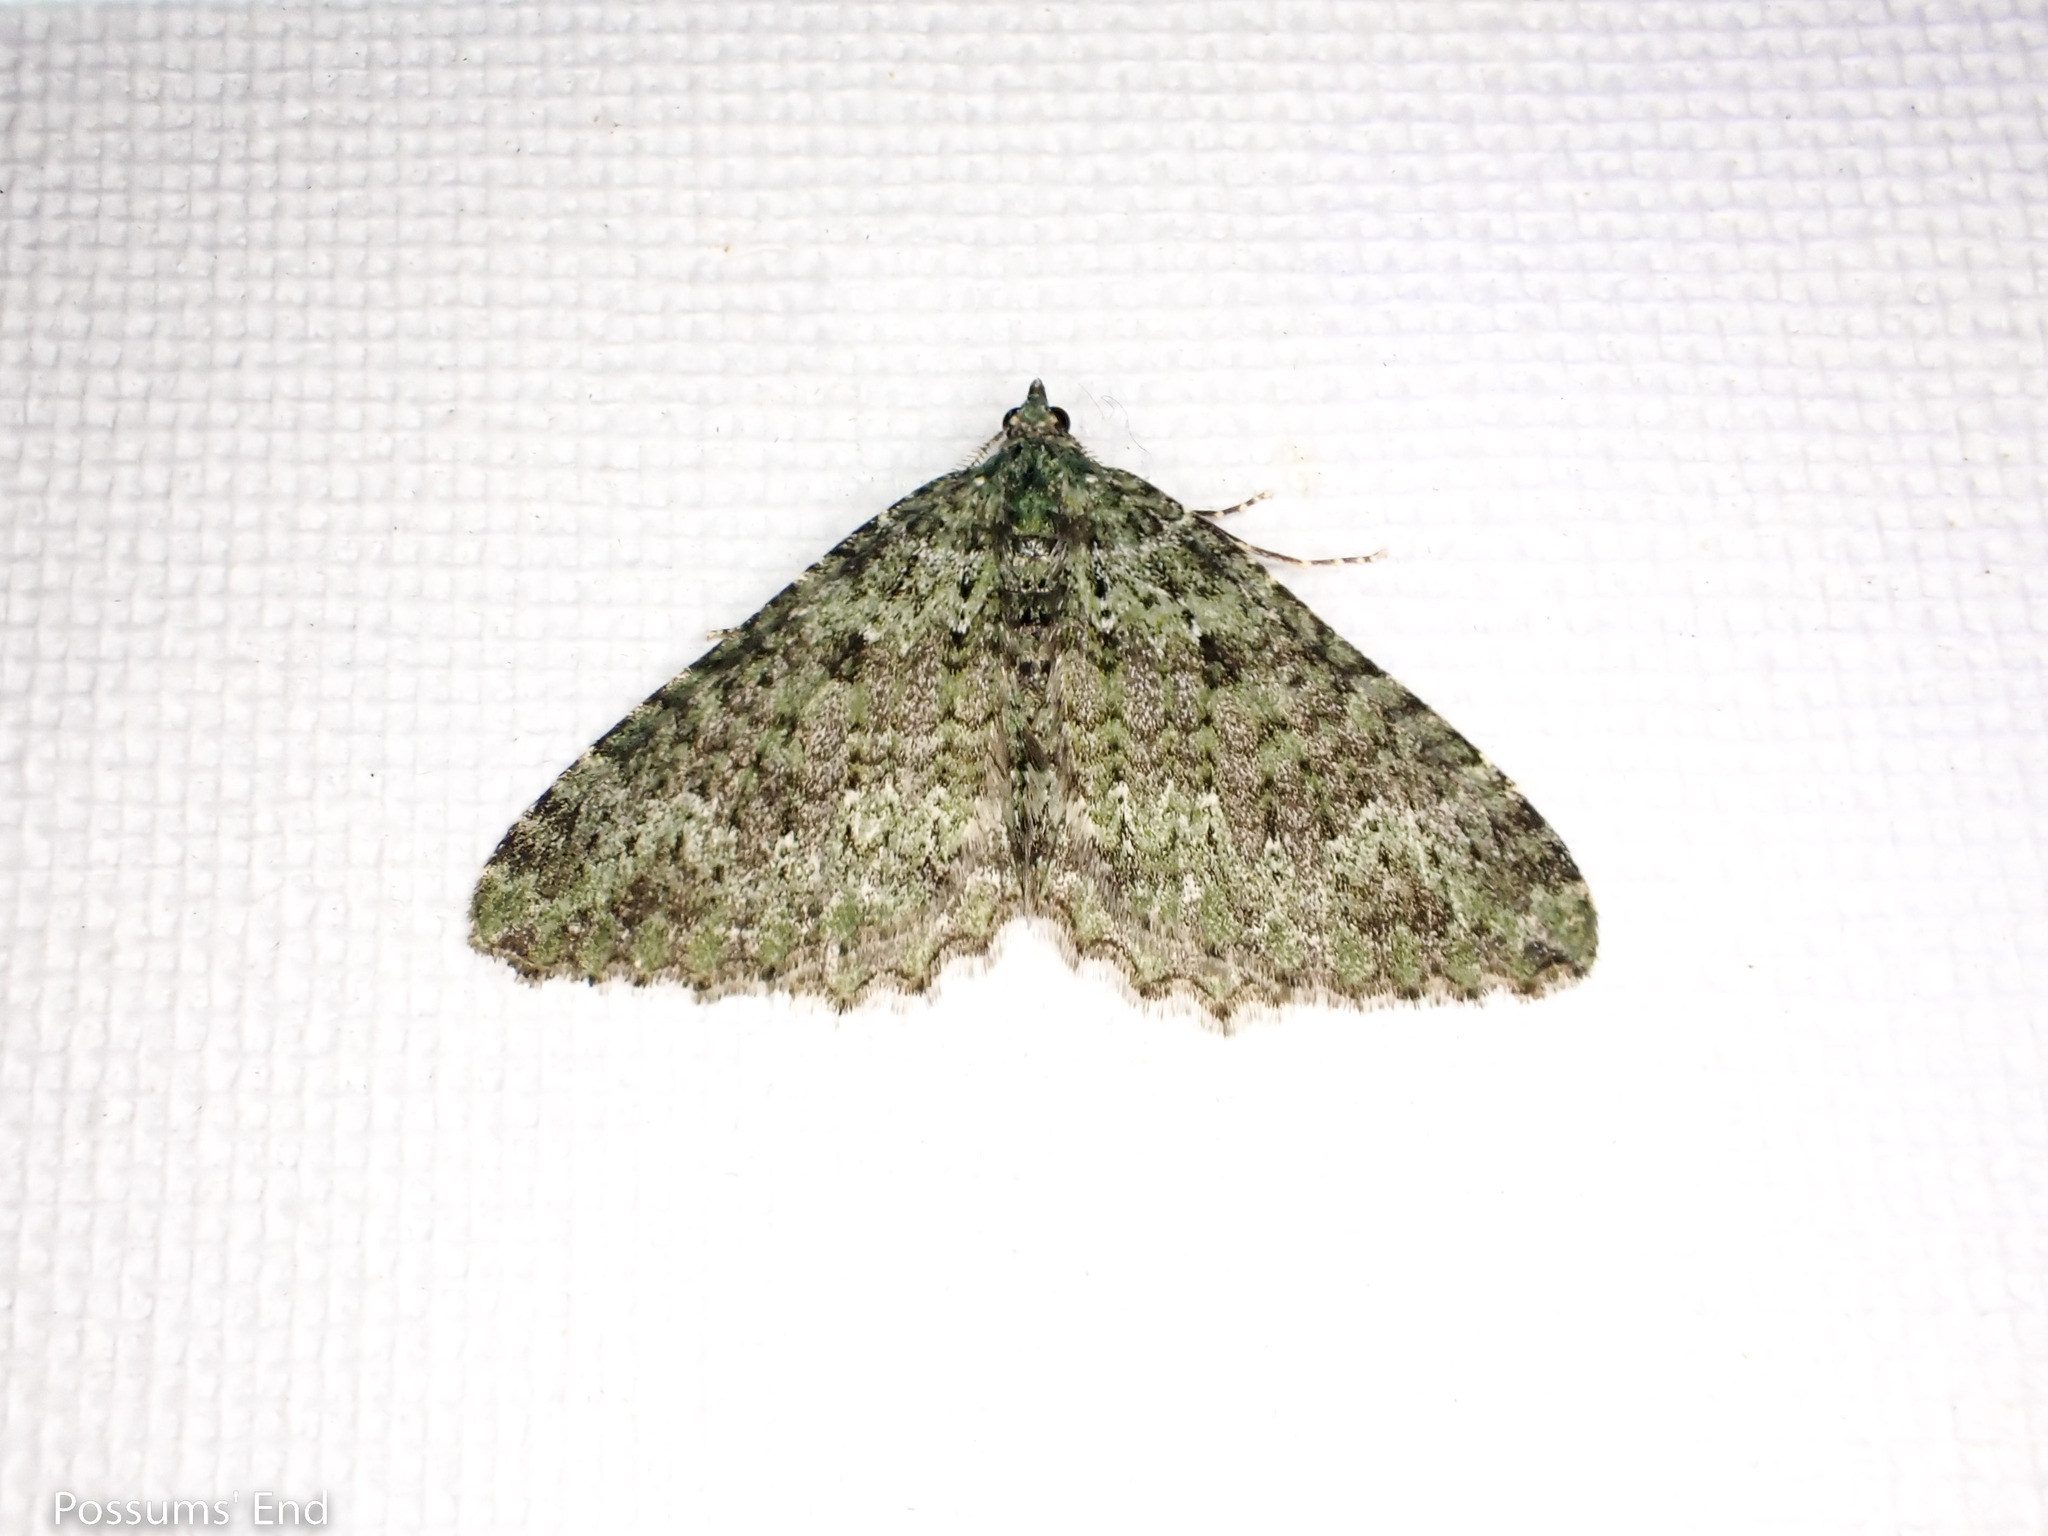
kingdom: Animalia
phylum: Arthropoda
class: Insecta
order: Lepidoptera
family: Geometridae
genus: Austrocidaria
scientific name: Austrocidaria umbrosa
